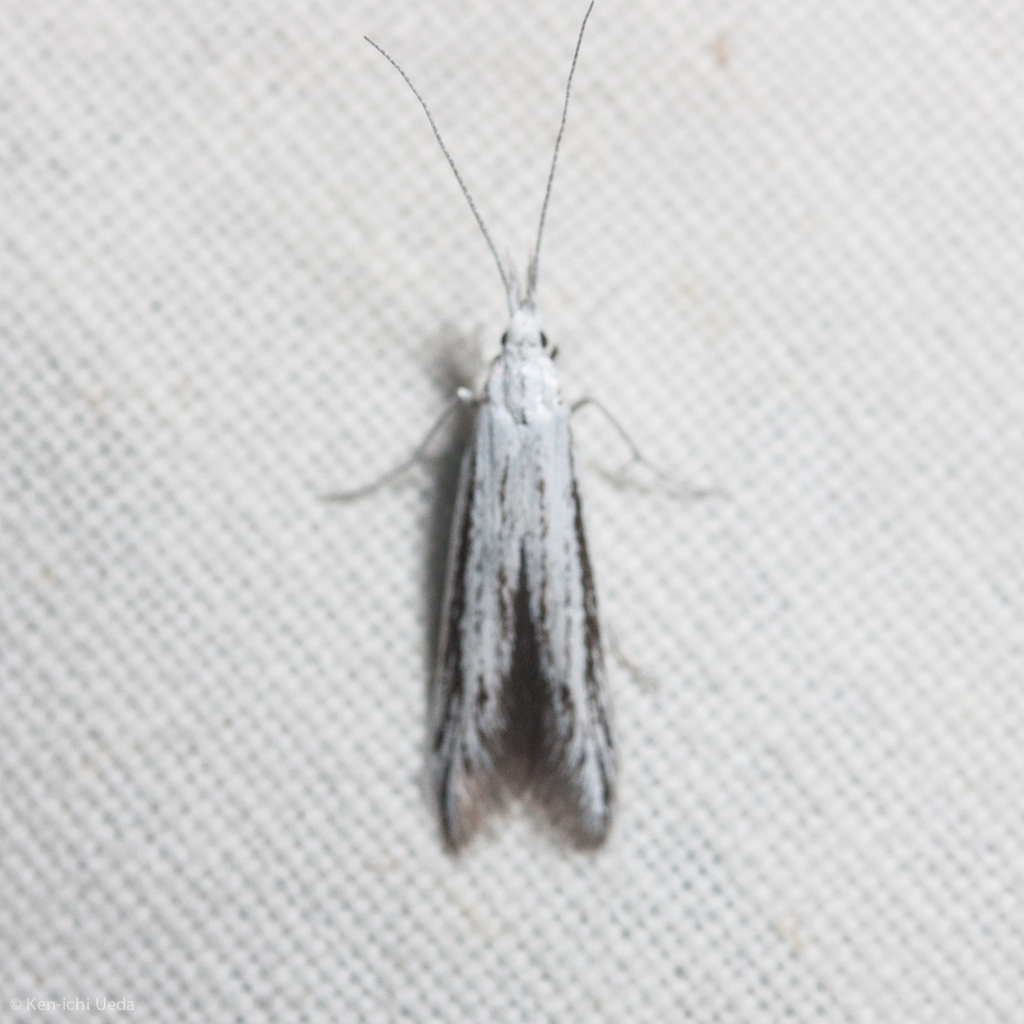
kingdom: Animalia
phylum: Arthropoda
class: Insecta
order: Lepidoptera
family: Coleophoridae
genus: Coleophora
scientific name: Coleophora discostriata
